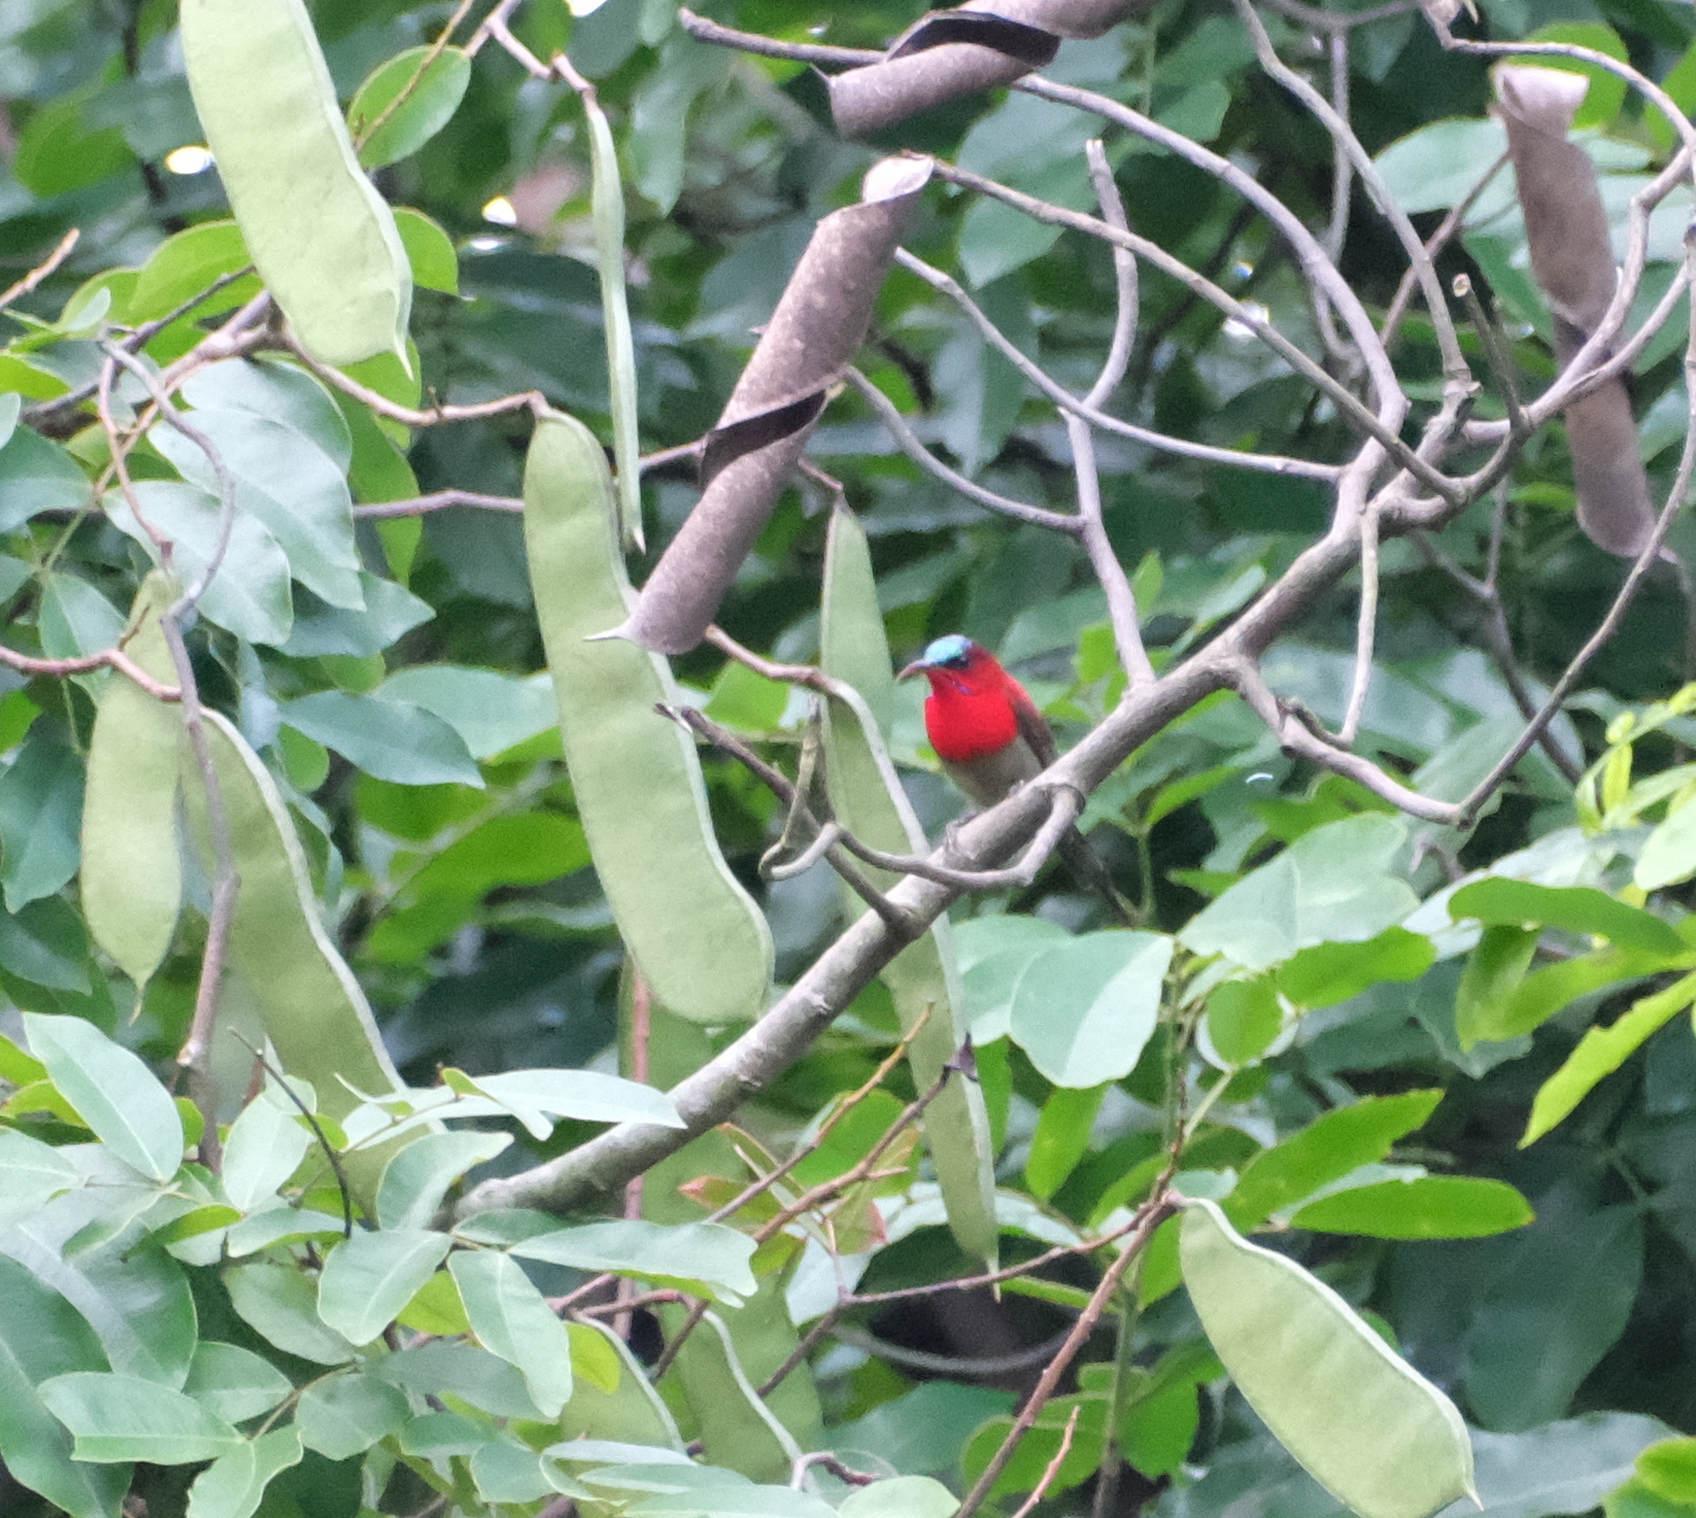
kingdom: Animalia
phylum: Chordata
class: Aves
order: Passeriformes
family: Nectariniidae
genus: Aethopyga
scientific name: Aethopyga siparaja
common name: Crimson sunbird
